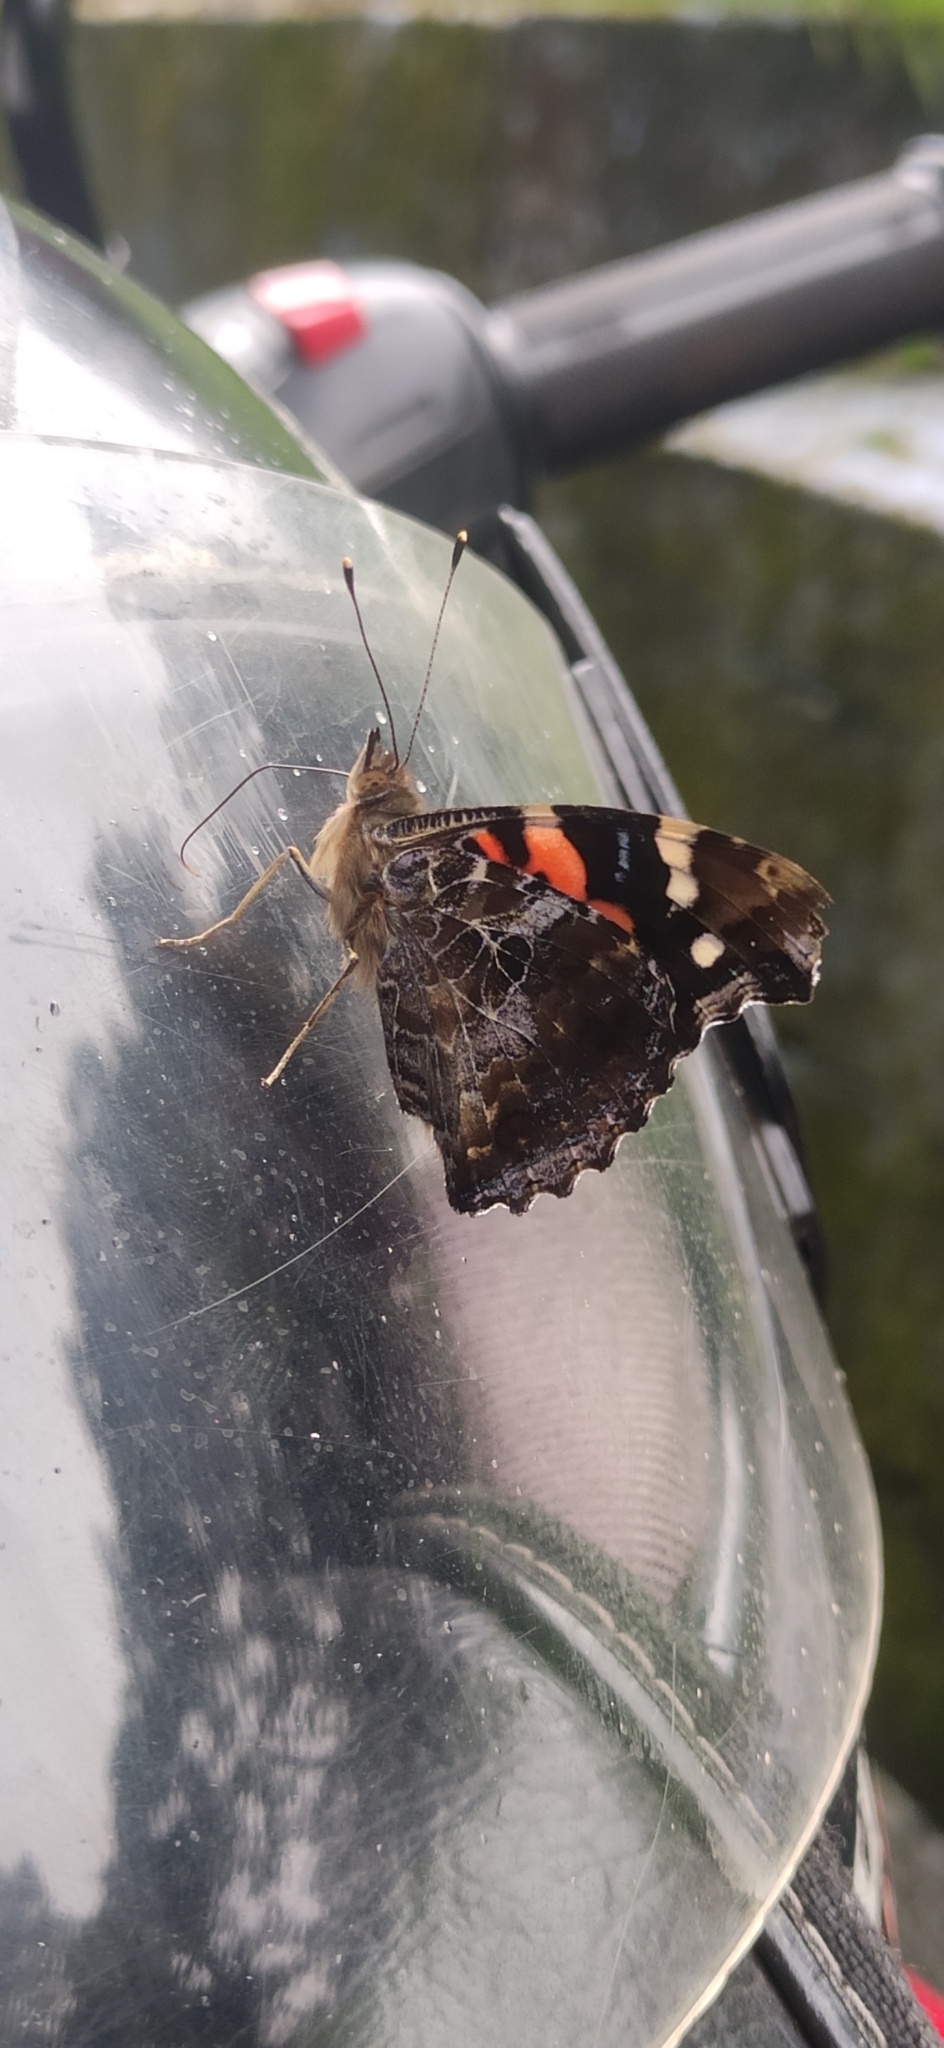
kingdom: Animalia
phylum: Arthropoda
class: Insecta
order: Lepidoptera
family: Nymphalidae
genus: Vanessa
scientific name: Vanessa indica
